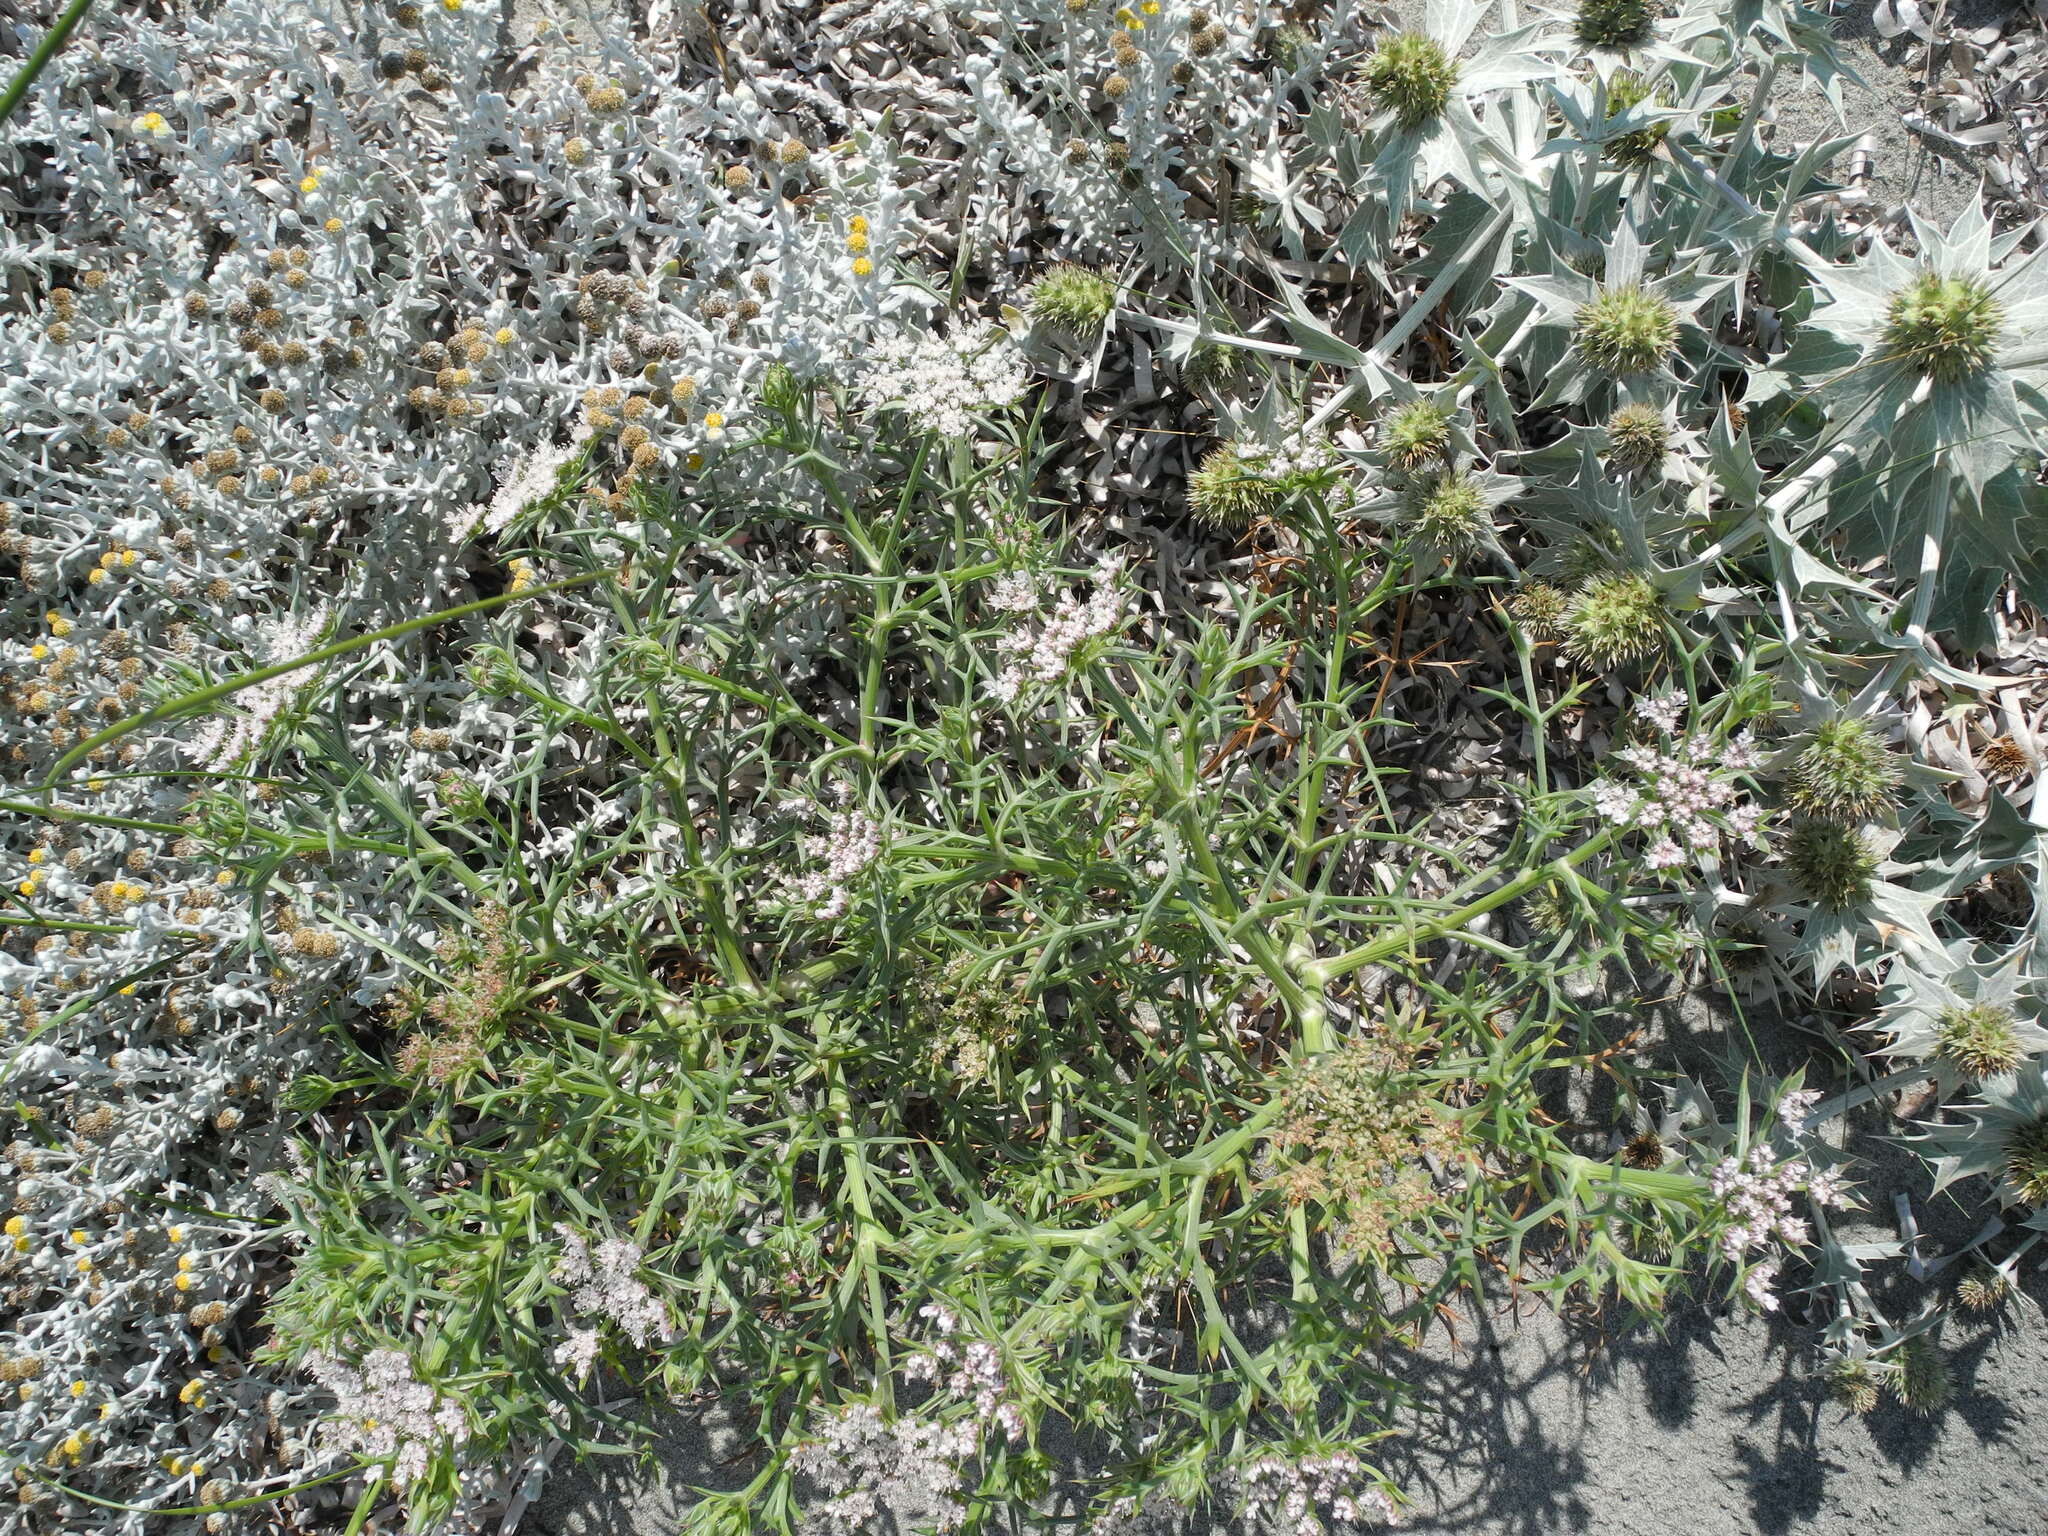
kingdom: Plantae
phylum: Tracheophyta
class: Magnoliopsida
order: Apiales
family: Apiaceae
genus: Echinophora
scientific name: Echinophora spinosa
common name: Prickly samphire
